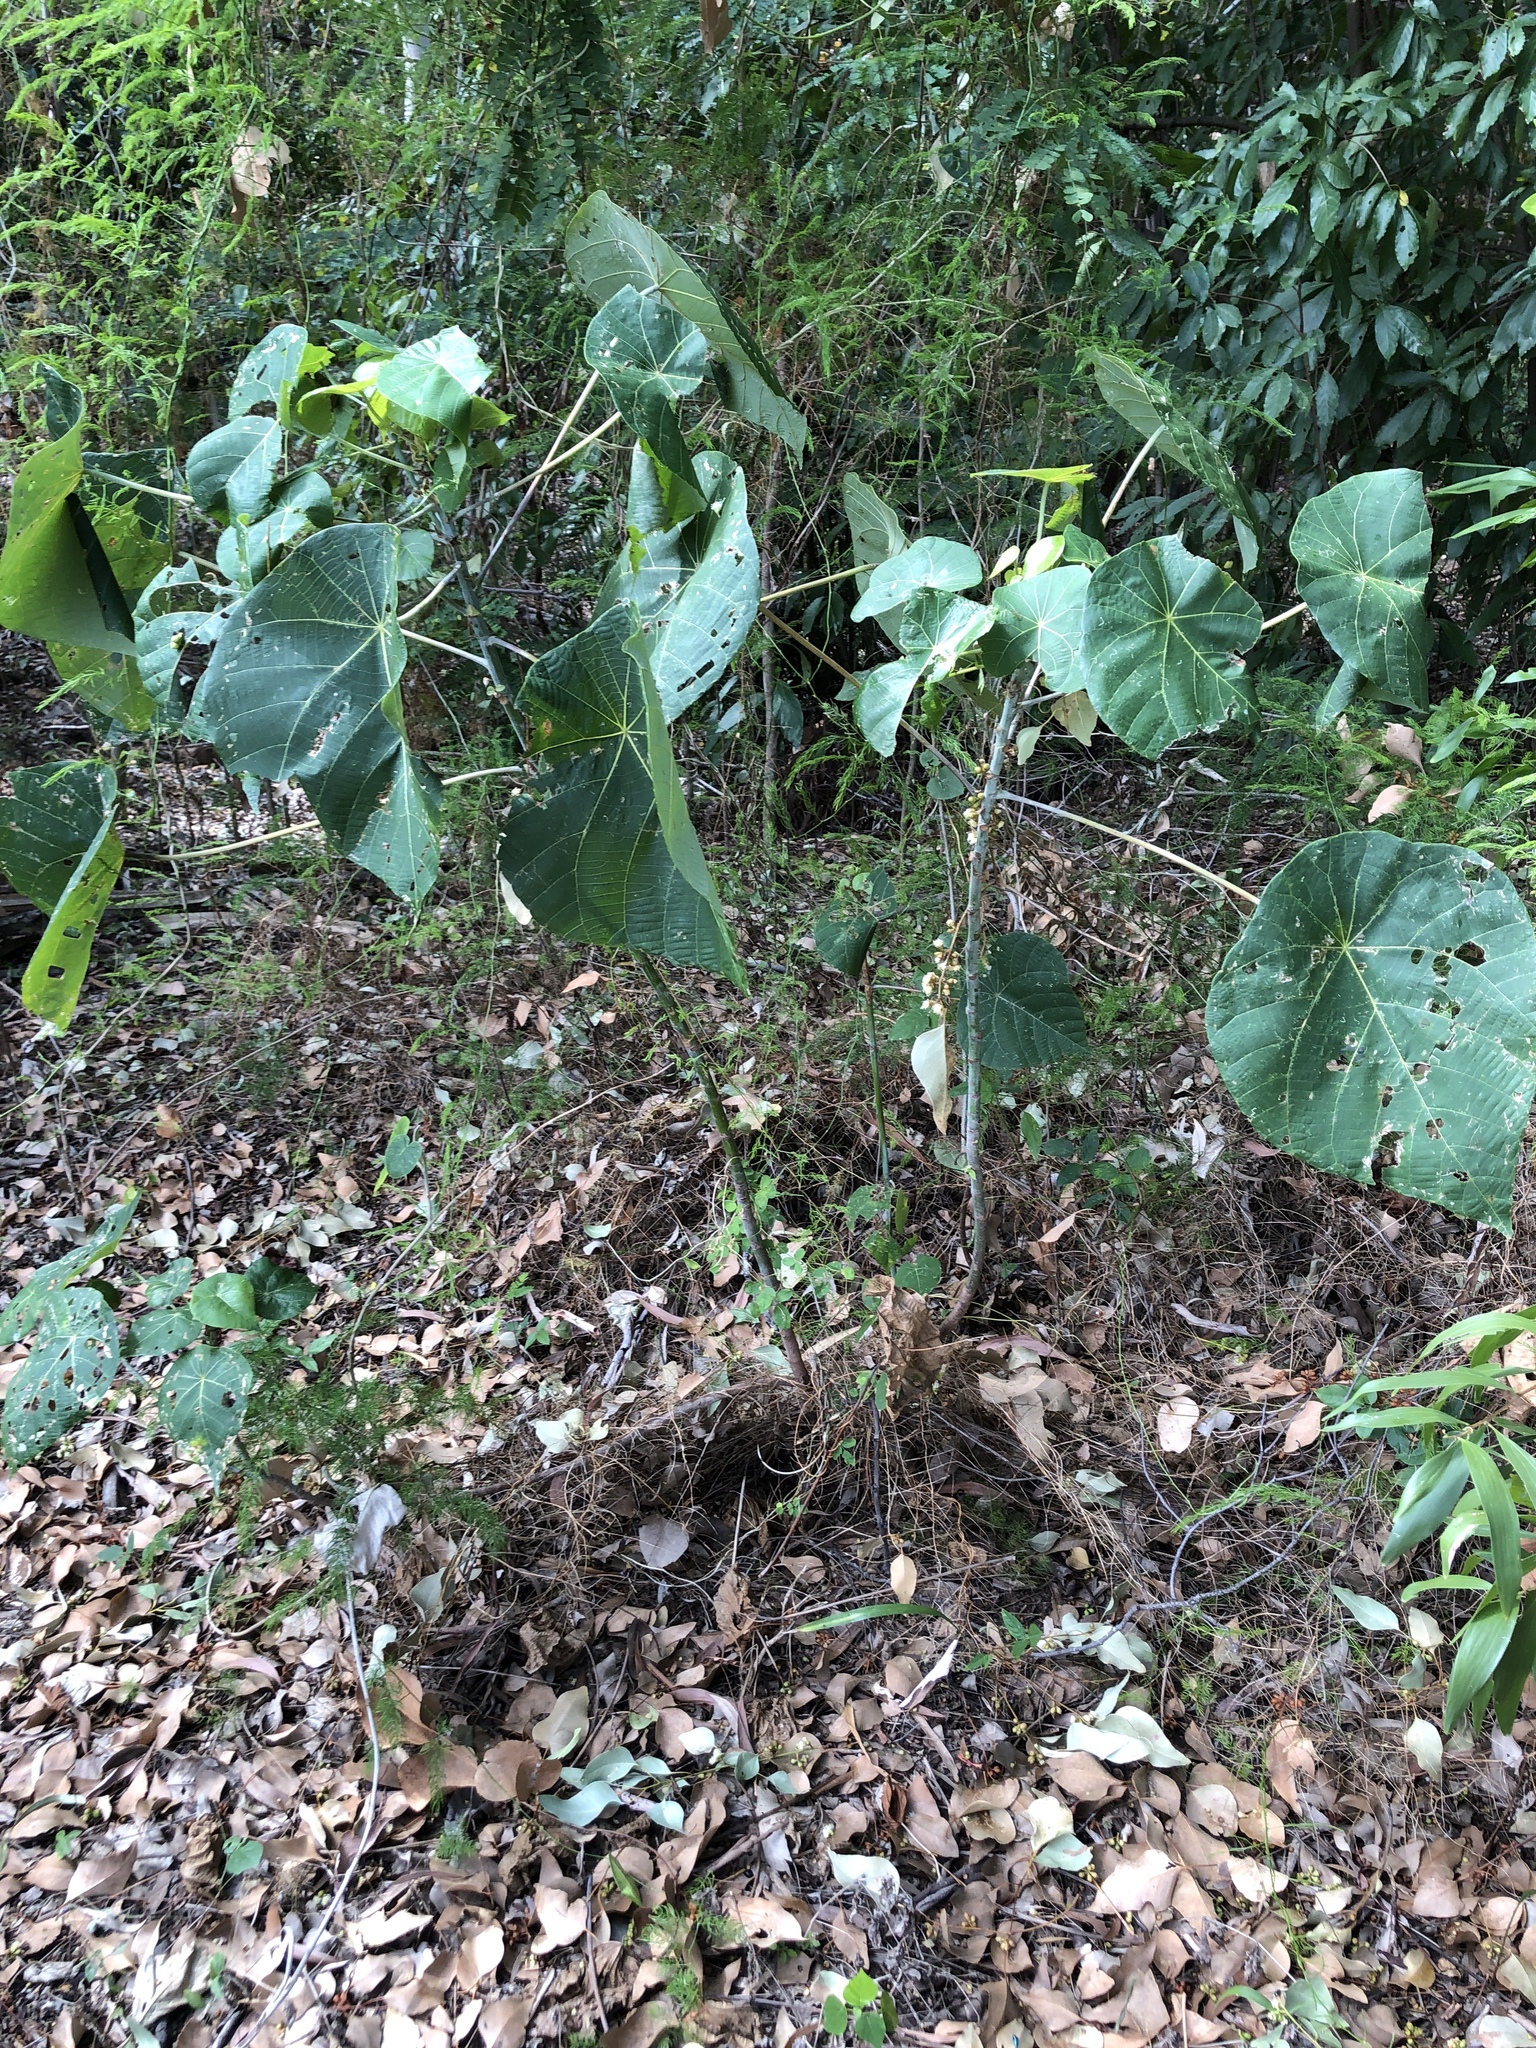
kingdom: Plantae
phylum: Tracheophyta
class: Magnoliopsida
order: Malpighiales
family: Euphorbiaceae
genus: Macaranga
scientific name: Macaranga tanarius
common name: Parasol leaf tree
